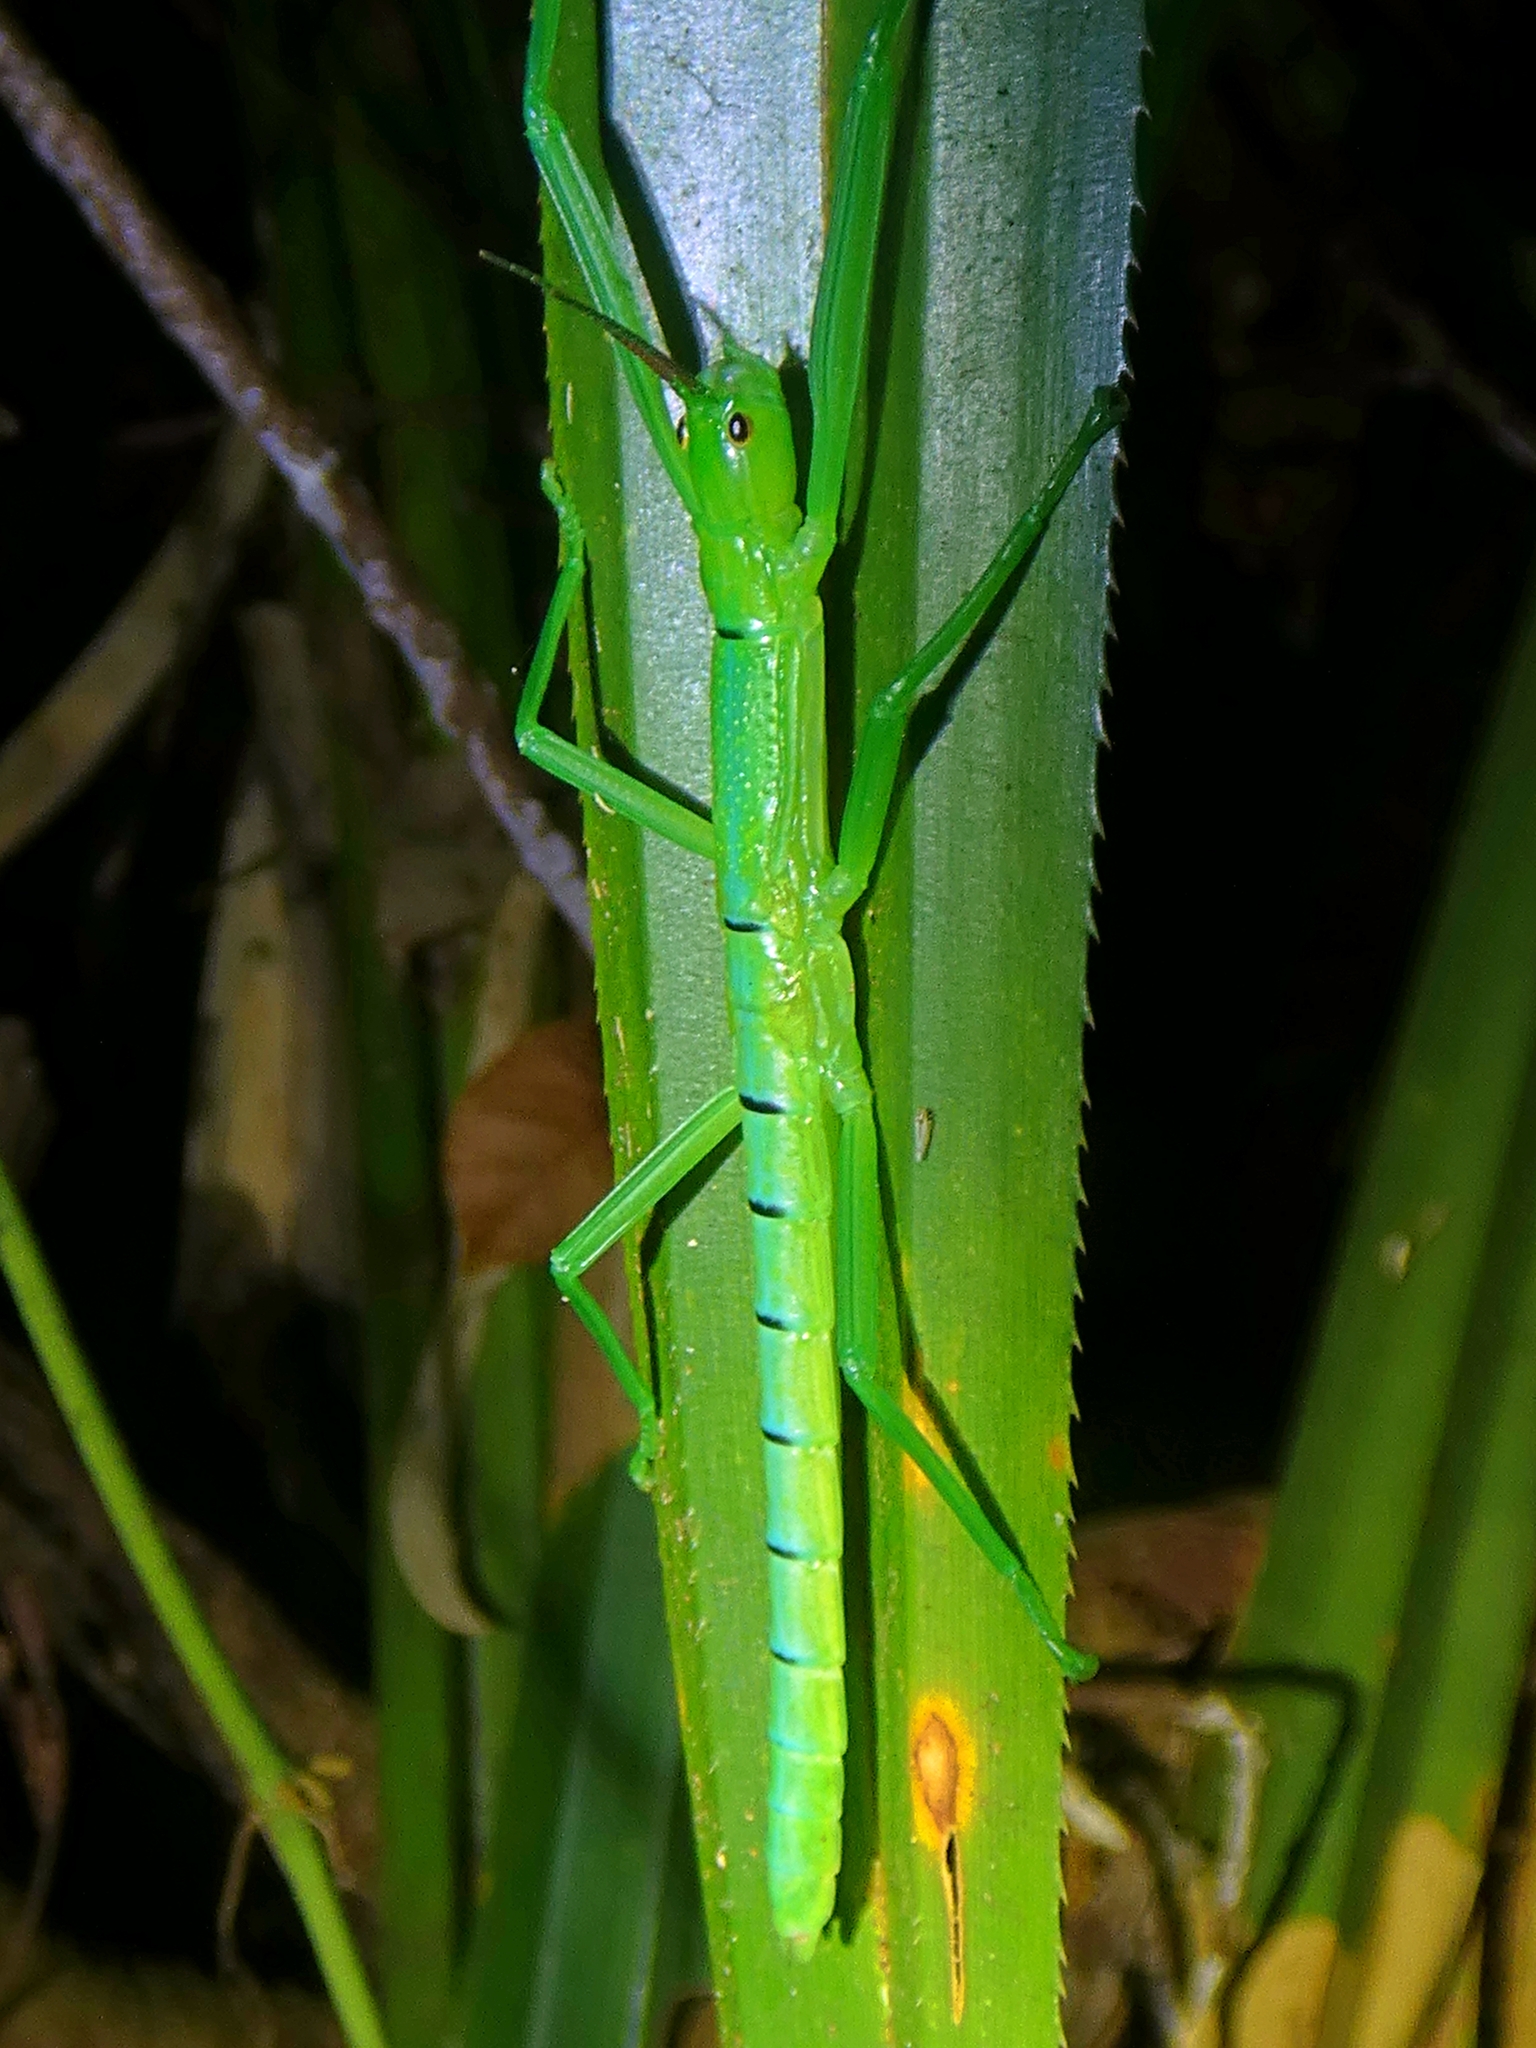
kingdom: Animalia
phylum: Arthropoda
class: Insecta
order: Phasmida
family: Phasmatidae
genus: Megacrania
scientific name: Megacrania batesii
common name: Peppermint stick-insect
